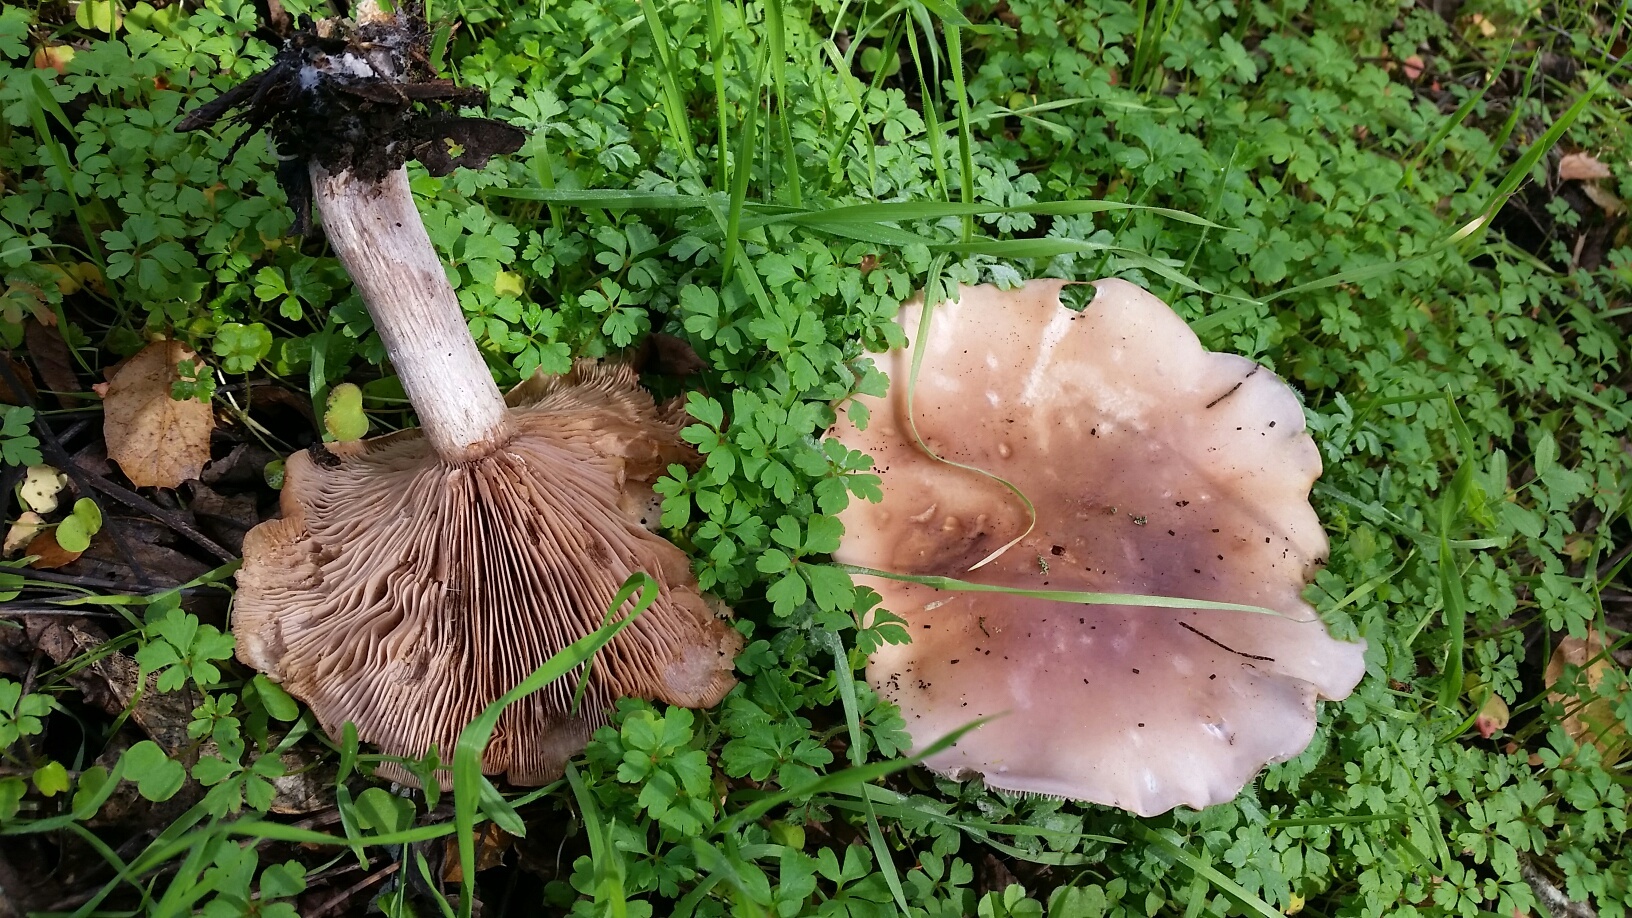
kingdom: Fungi
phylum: Basidiomycota
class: Agaricomycetes
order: Agaricales
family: Tricholomataceae
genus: Collybia
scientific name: Collybia
